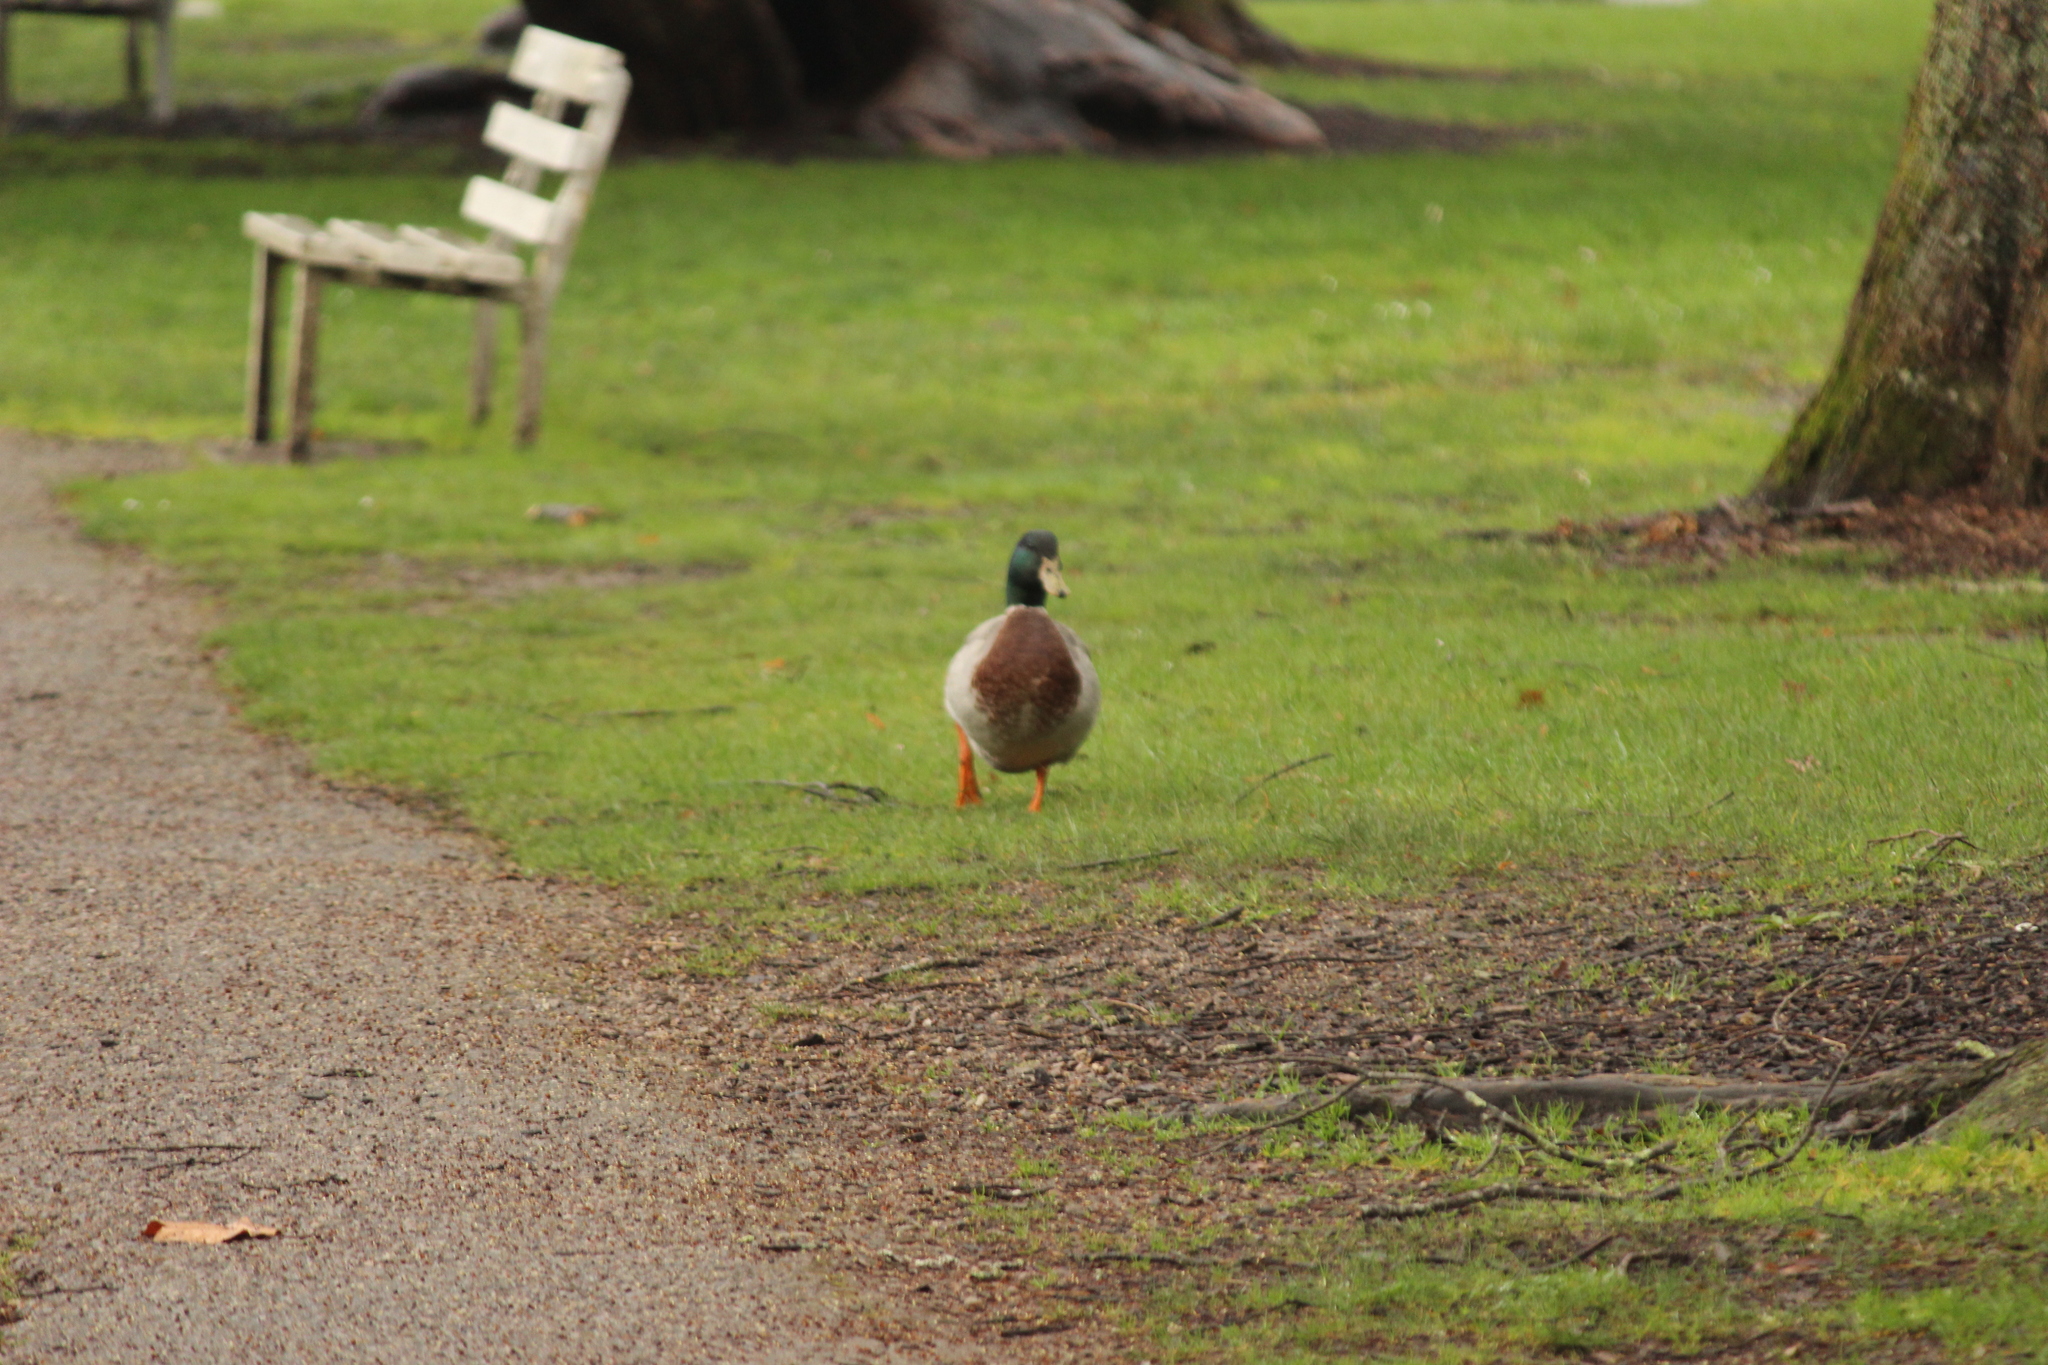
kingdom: Animalia
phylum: Chordata
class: Aves
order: Anseriformes
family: Anatidae
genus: Anas
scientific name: Anas platyrhynchos
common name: Mallard
